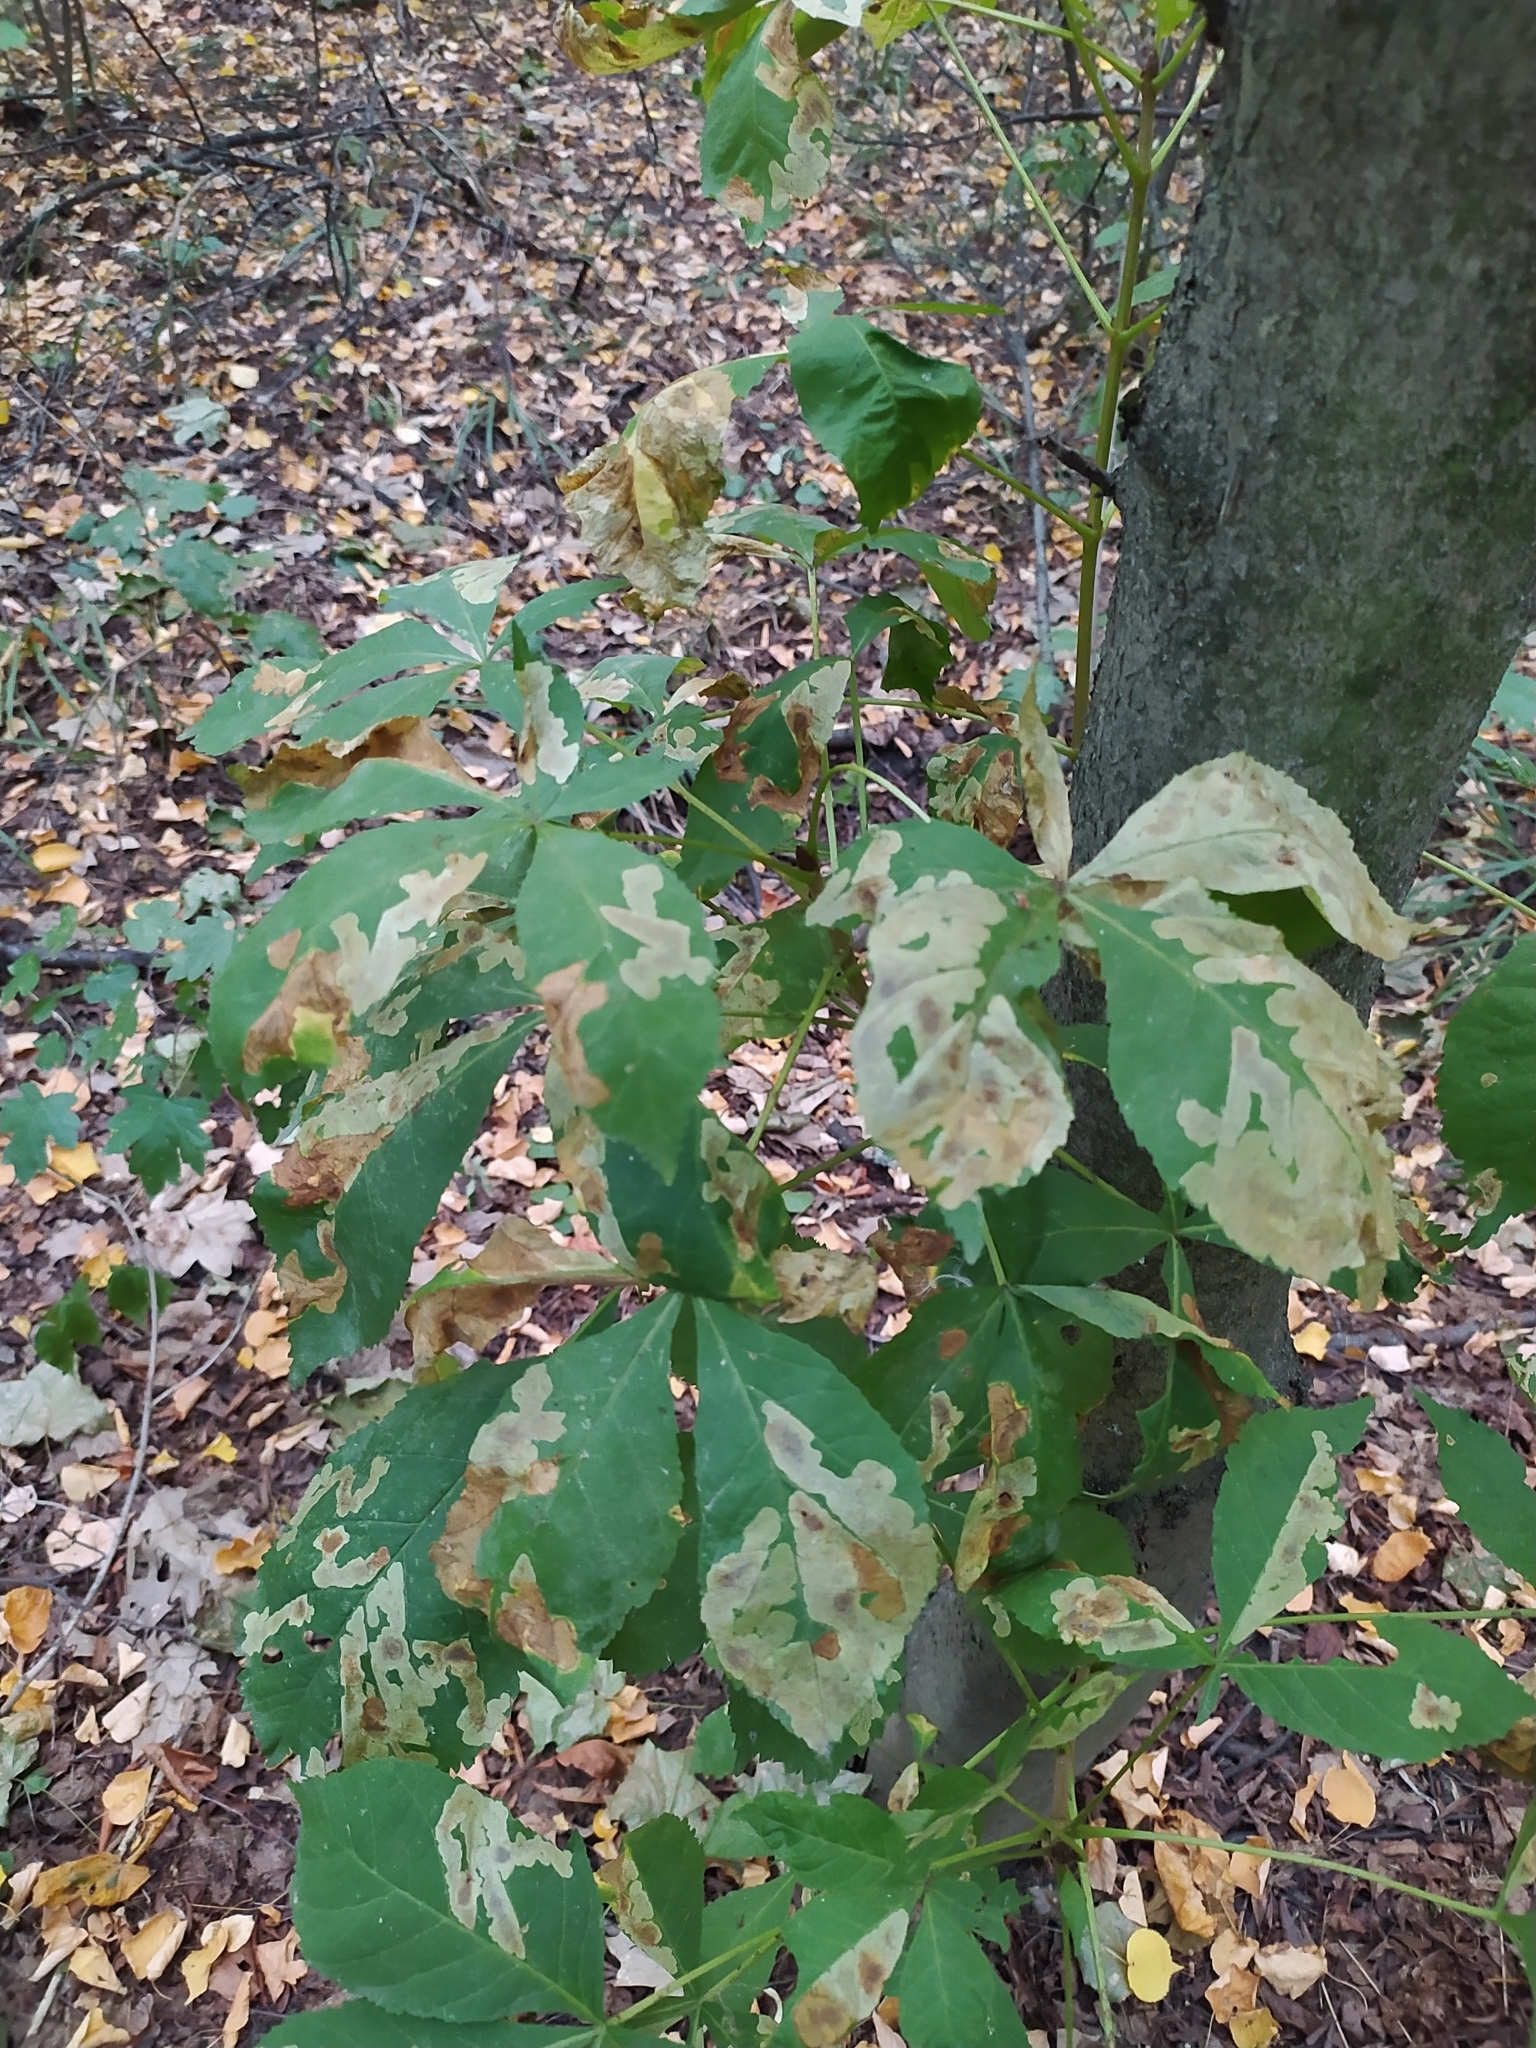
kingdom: Animalia
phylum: Arthropoda
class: Insecta
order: Lepidoptera
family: Gracillariidae
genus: Cameraria
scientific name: Cameraria ohridella
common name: Horse-chestnut leaf-miner
